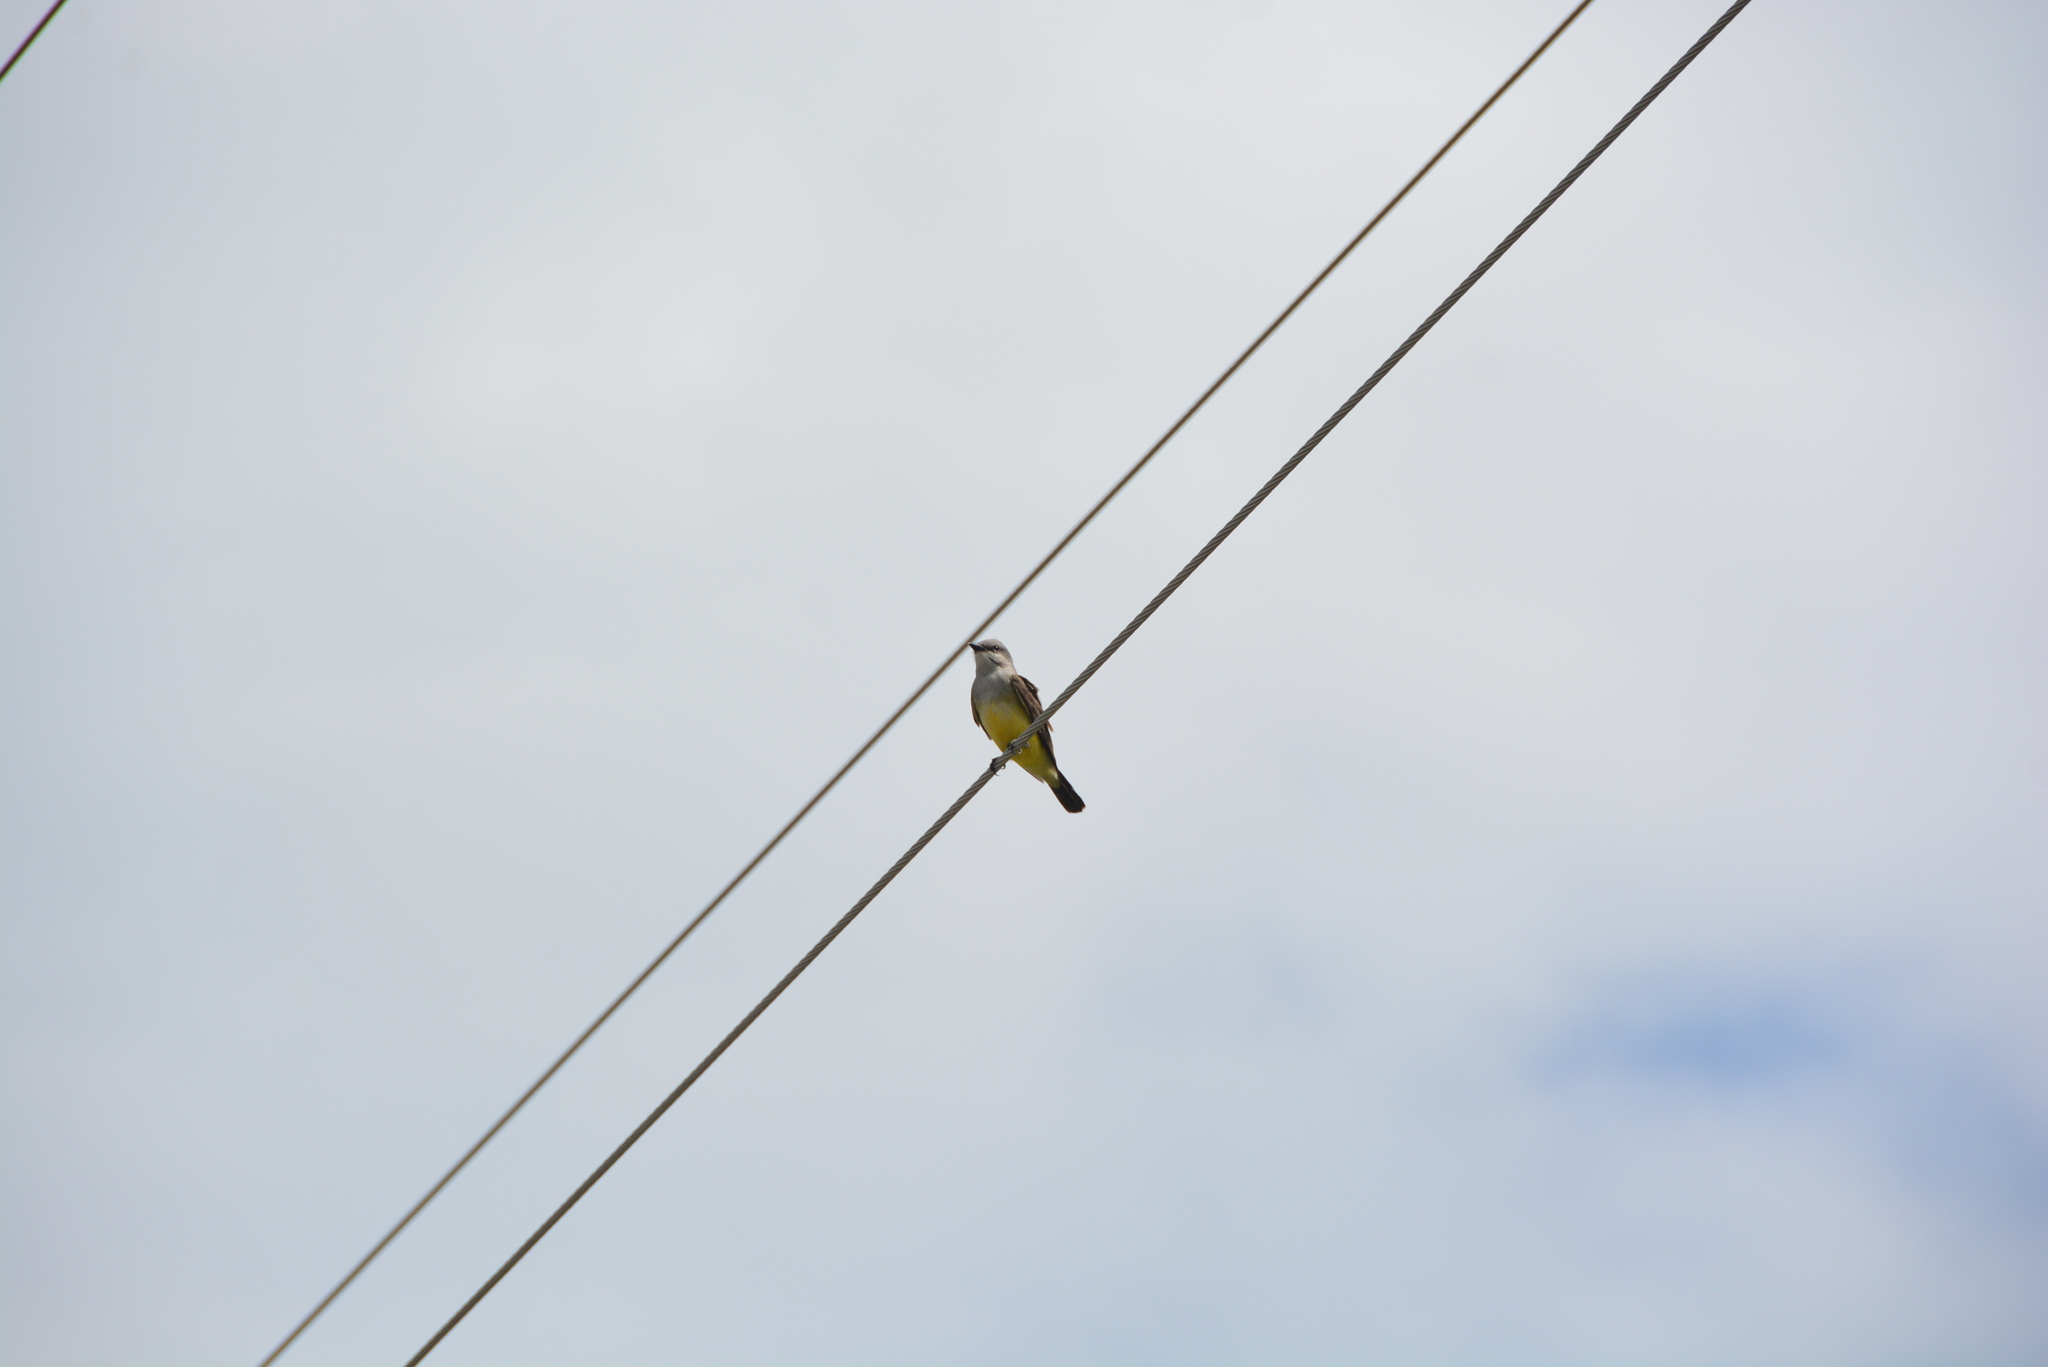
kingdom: Animalia
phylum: Chordata
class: Aves
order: Passeriformes
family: Tyrannidae
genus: Tyrannus
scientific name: Tyrannus verticalis
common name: Western kingbird
